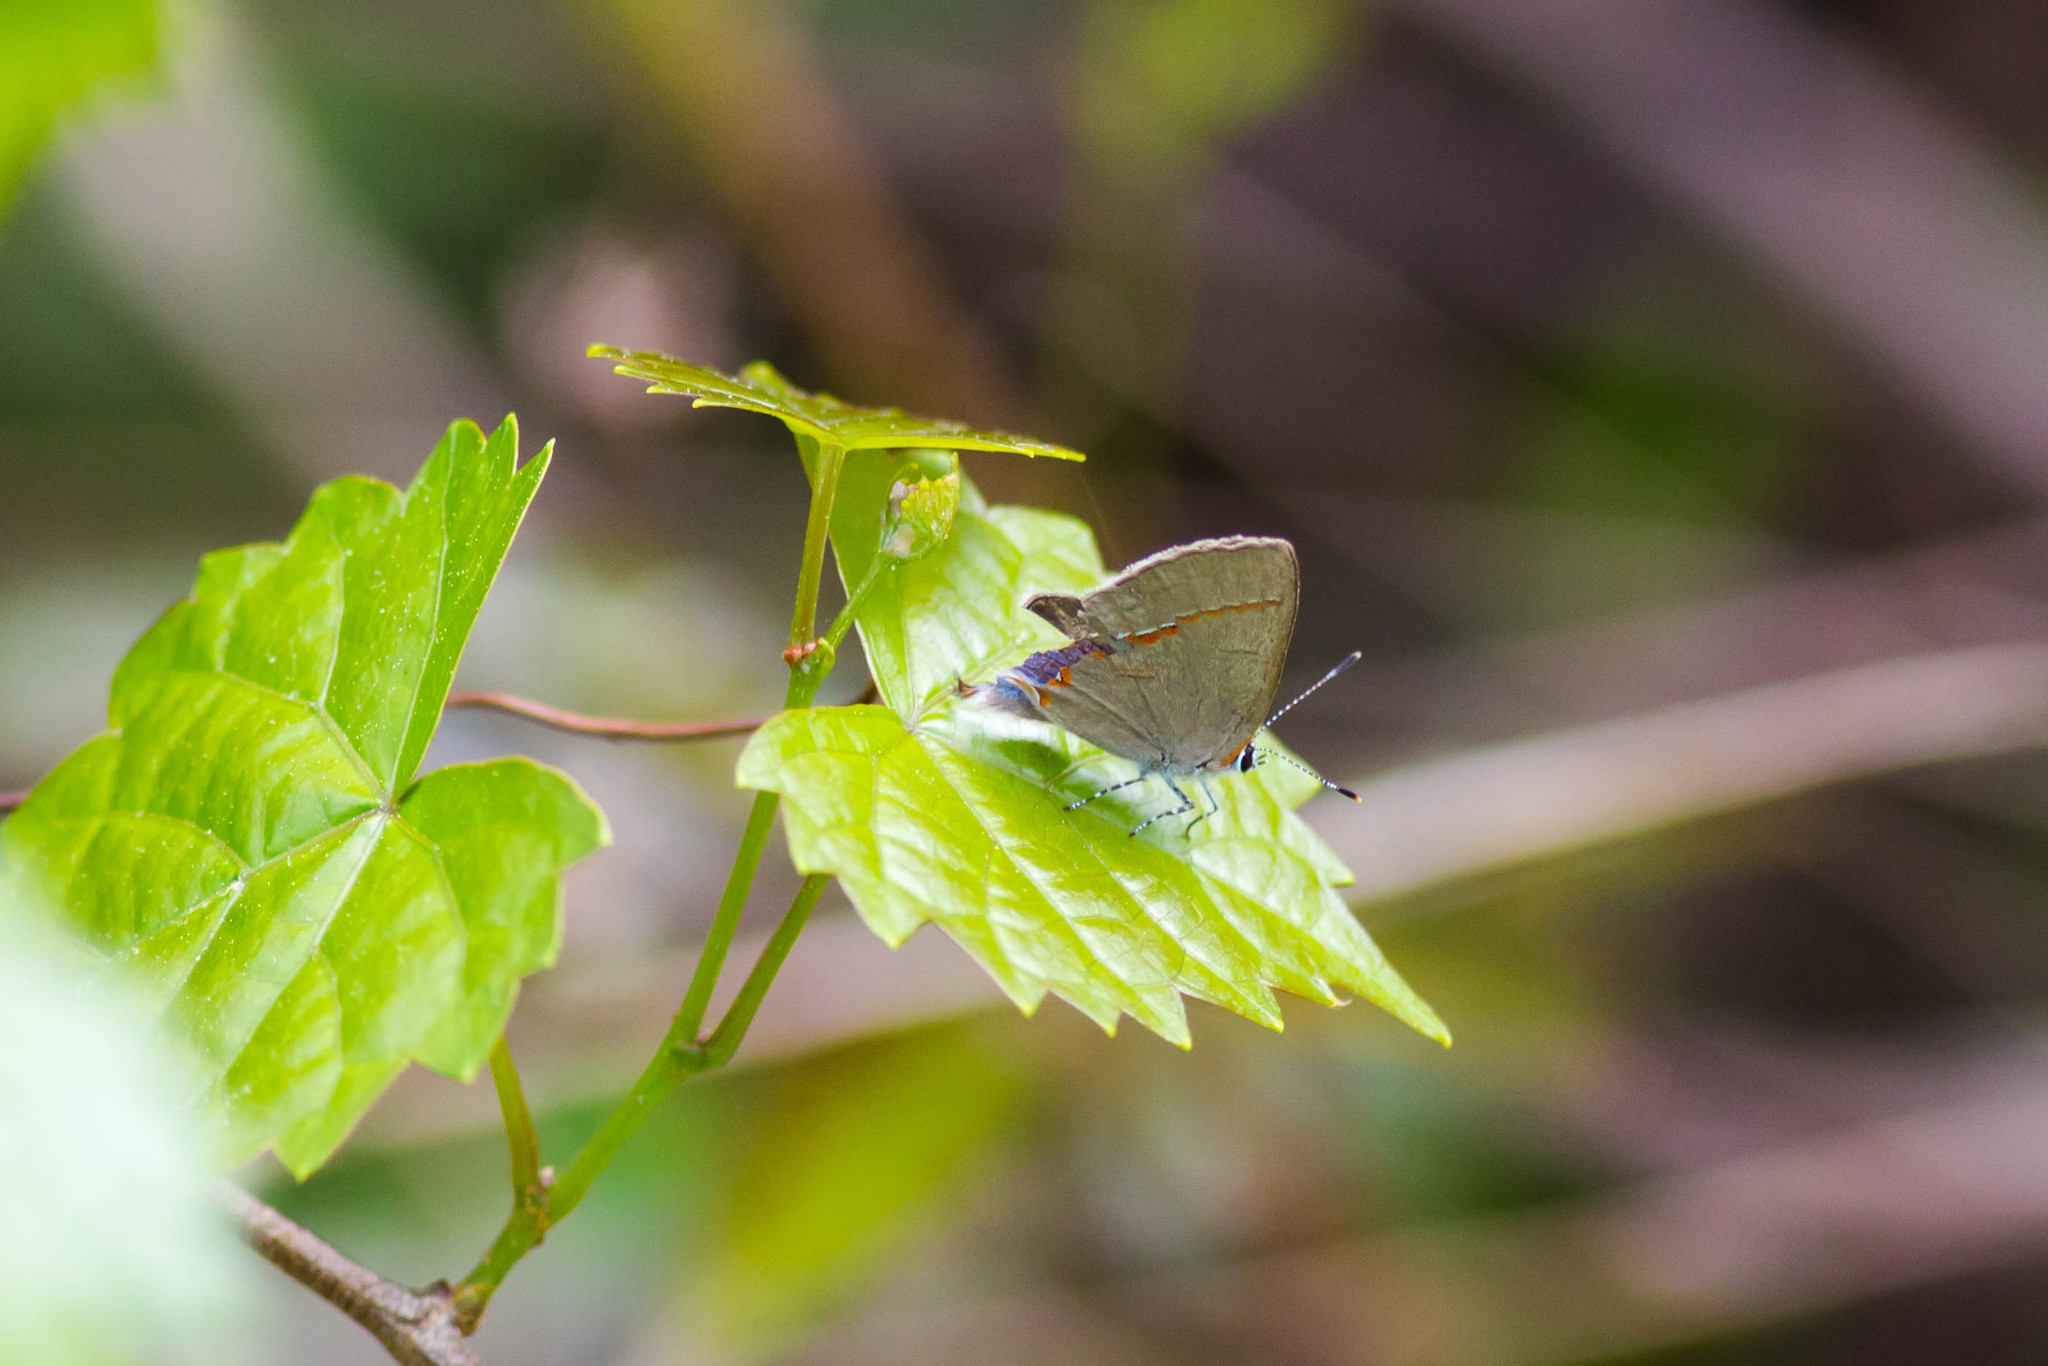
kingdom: Animalia
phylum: Arthropoda
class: Insecta
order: Lepidoptera
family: Lycaenidae
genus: Calycopis
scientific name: Calycopis cecrops
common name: Red-banded hairstreak
